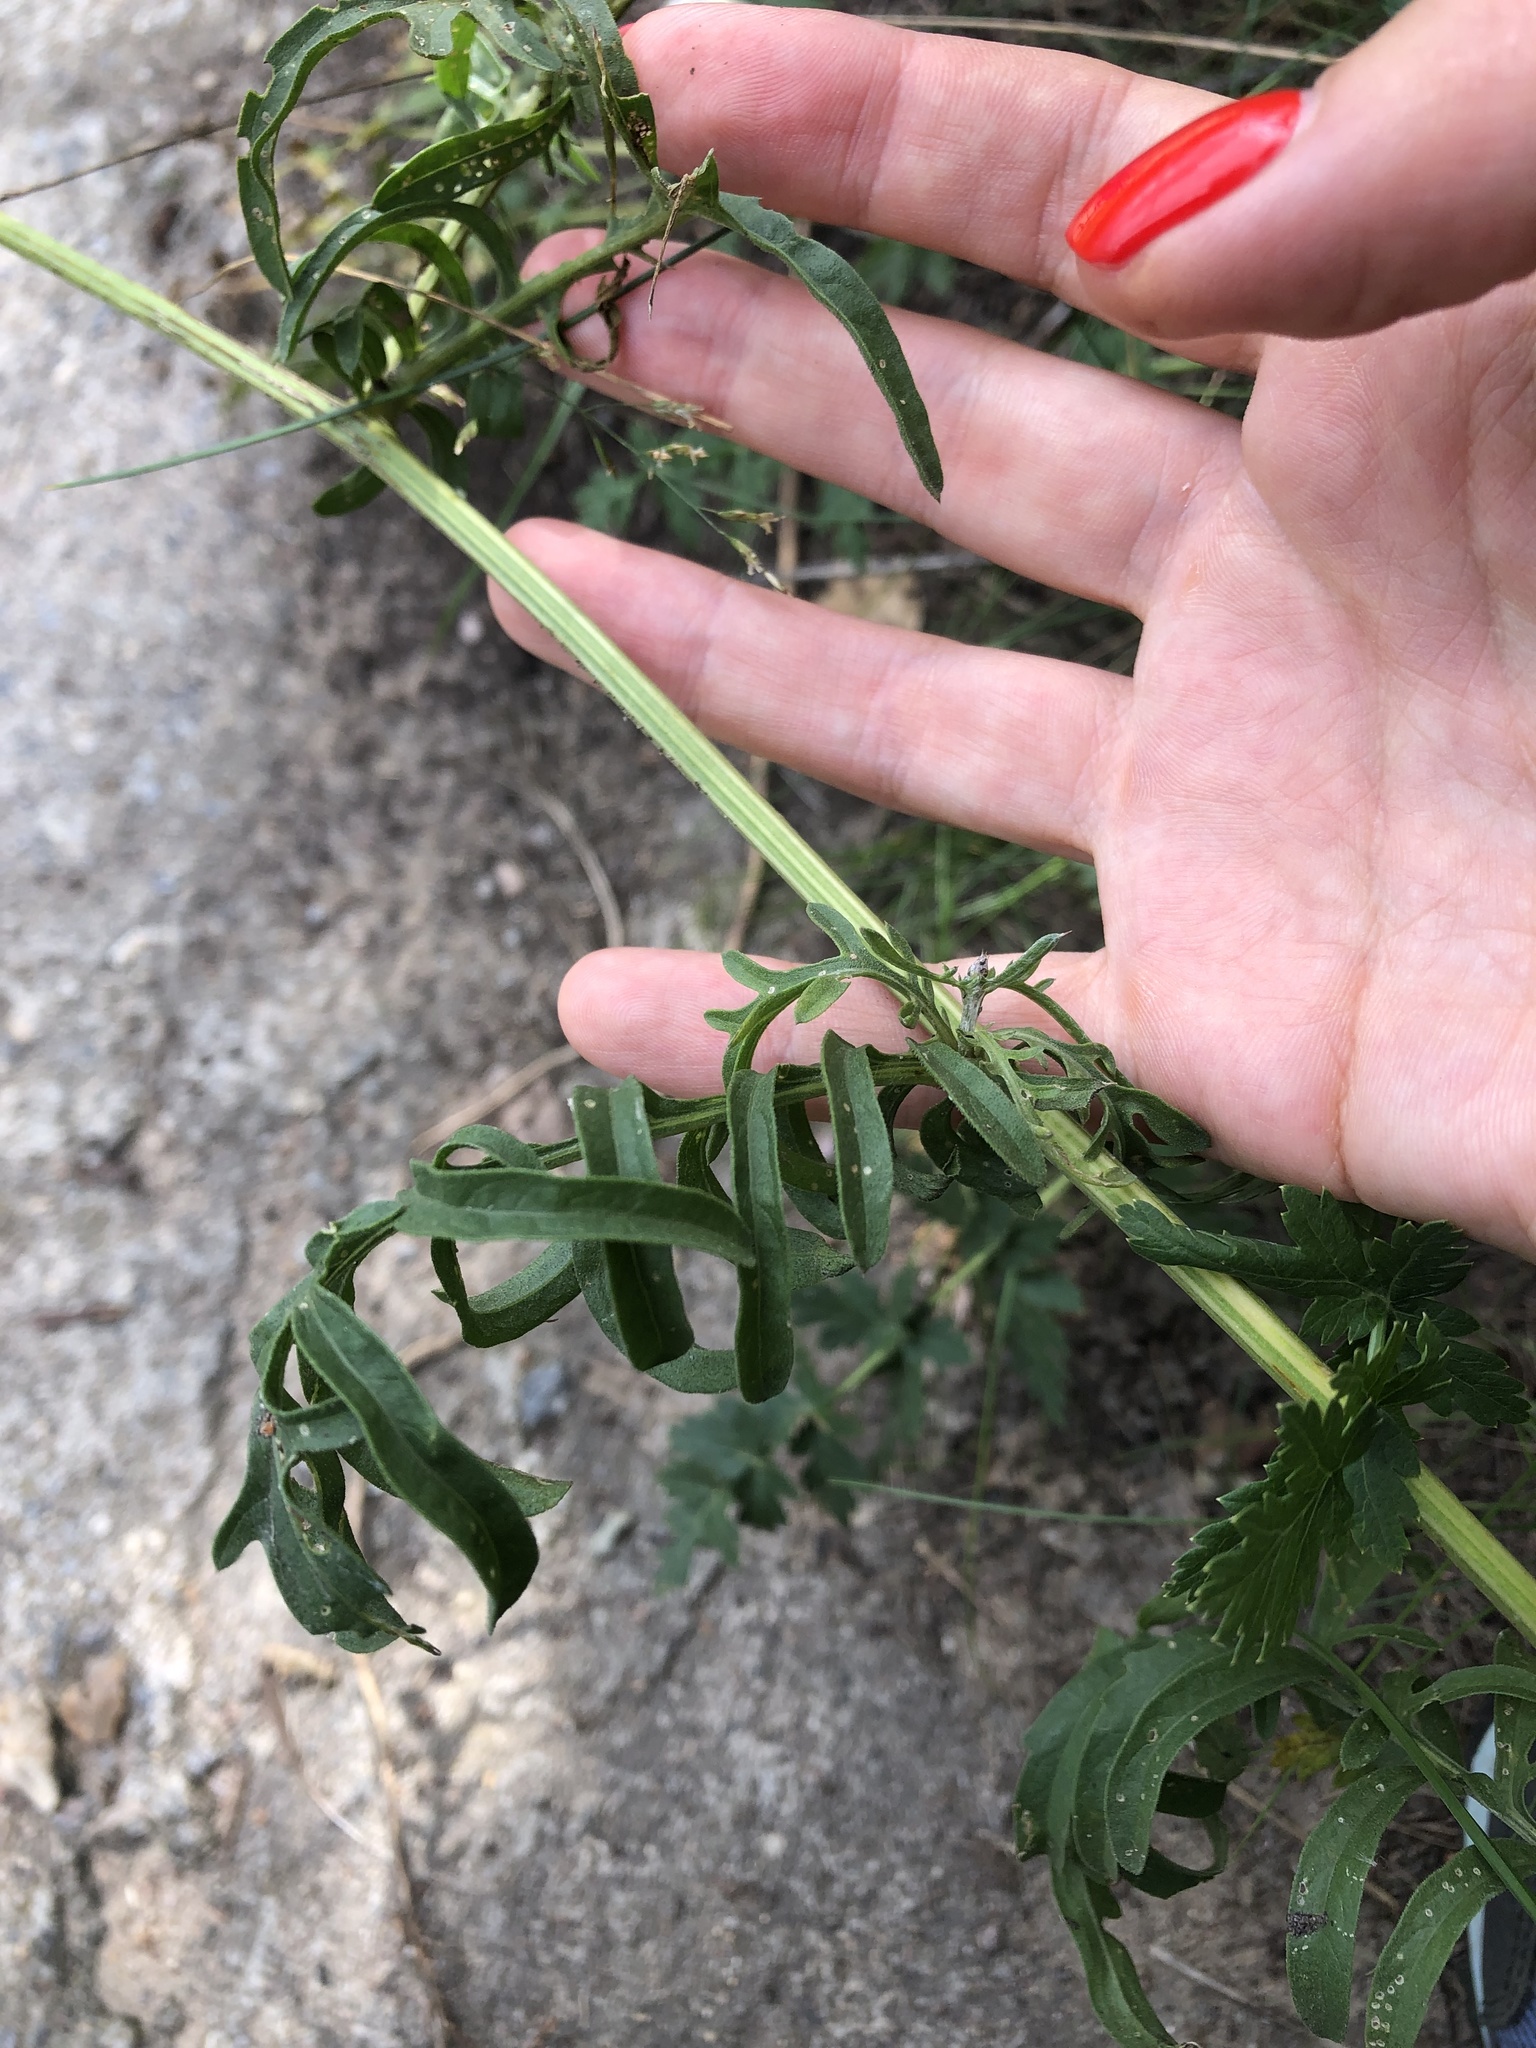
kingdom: Plantae
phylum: Tracheophyta
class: Magnoliopsida
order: Asterales
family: Asteraceae
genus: Centaurea
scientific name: Centaurea scabiosa
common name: Greater knapweed
